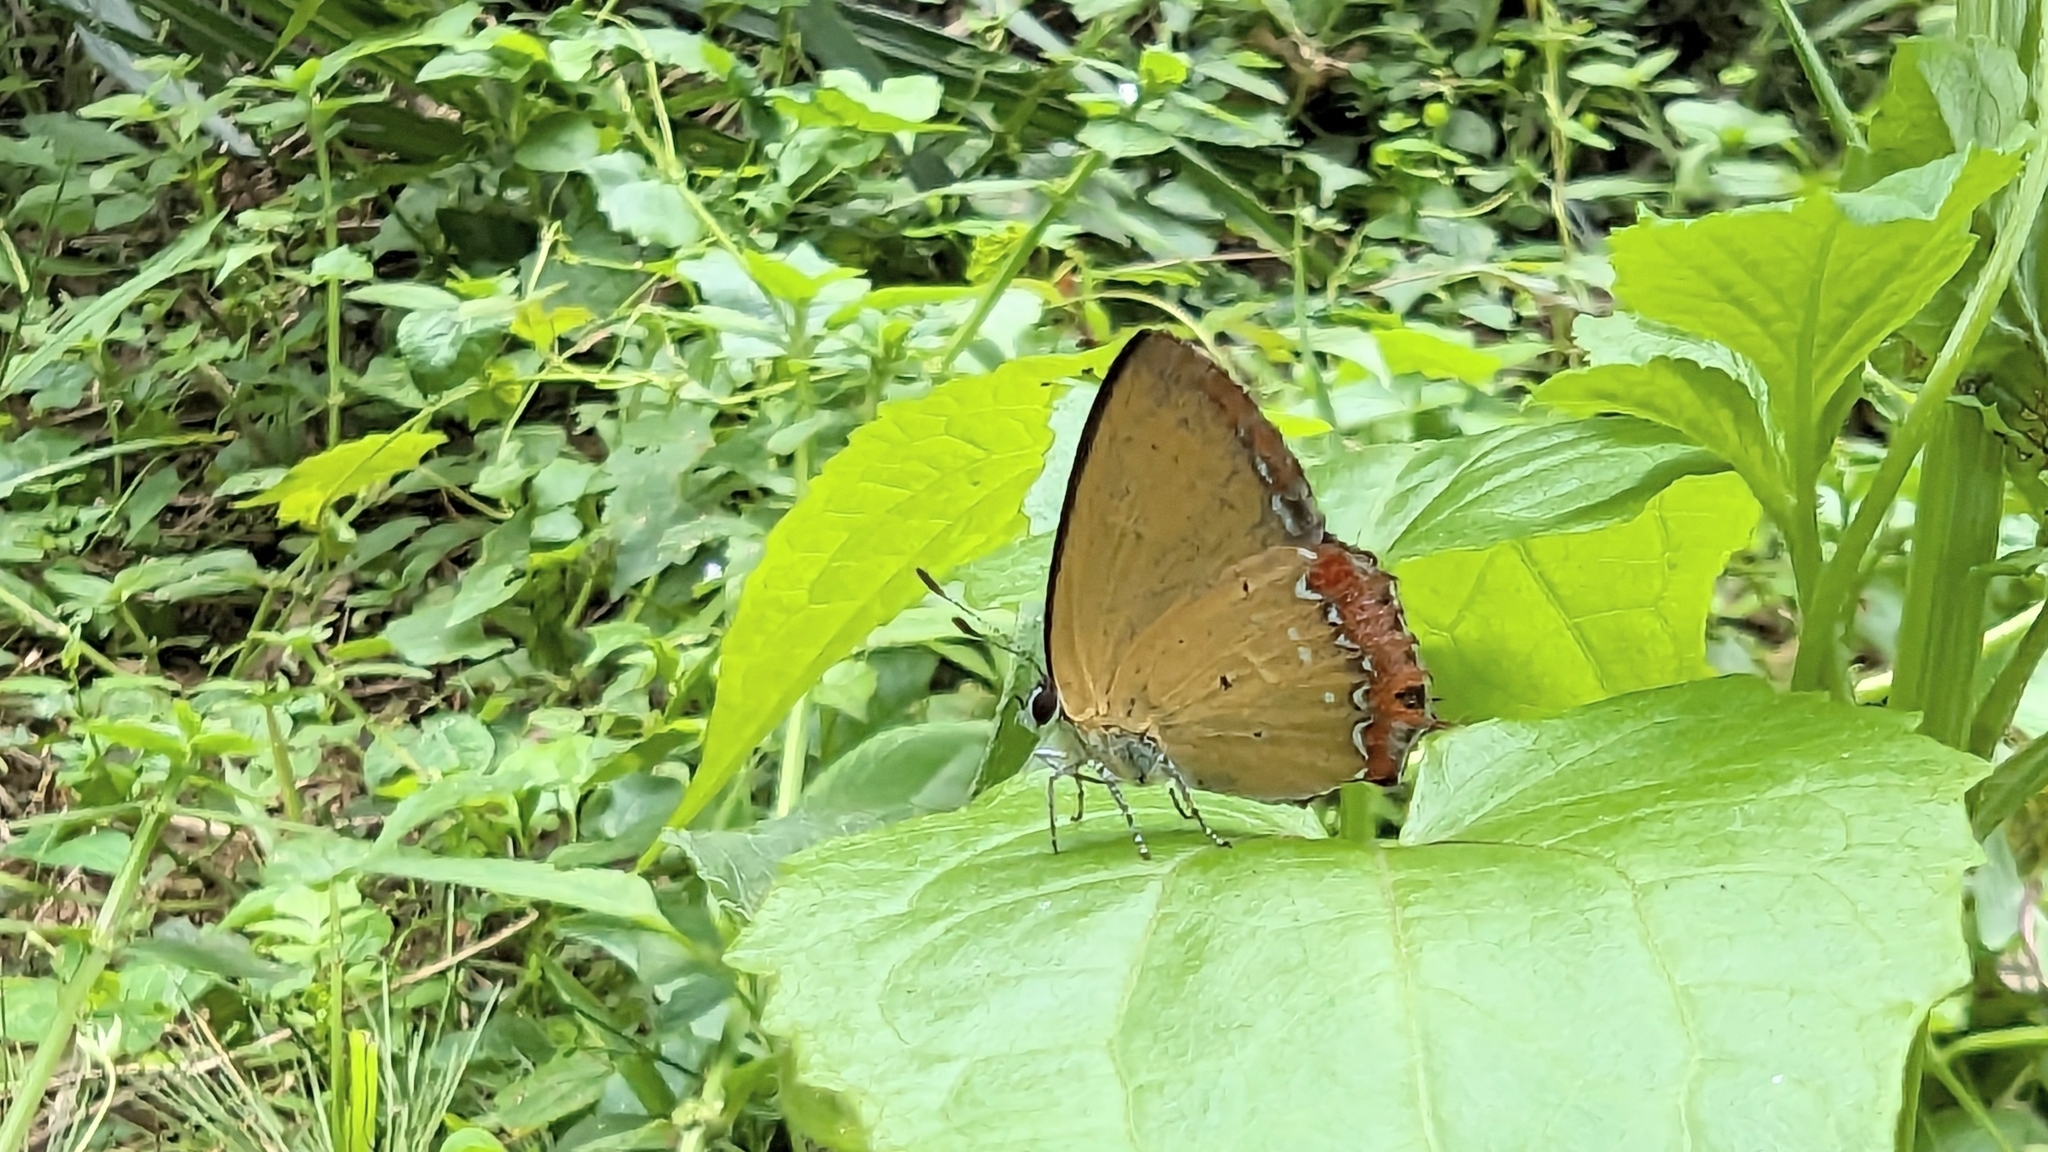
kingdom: Animalia
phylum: Arthropoda
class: Insecta
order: Lepidoptera
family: Lycaenidae
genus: Heliophorus
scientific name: Heliophorus ila
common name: Restricted purple sapphire
